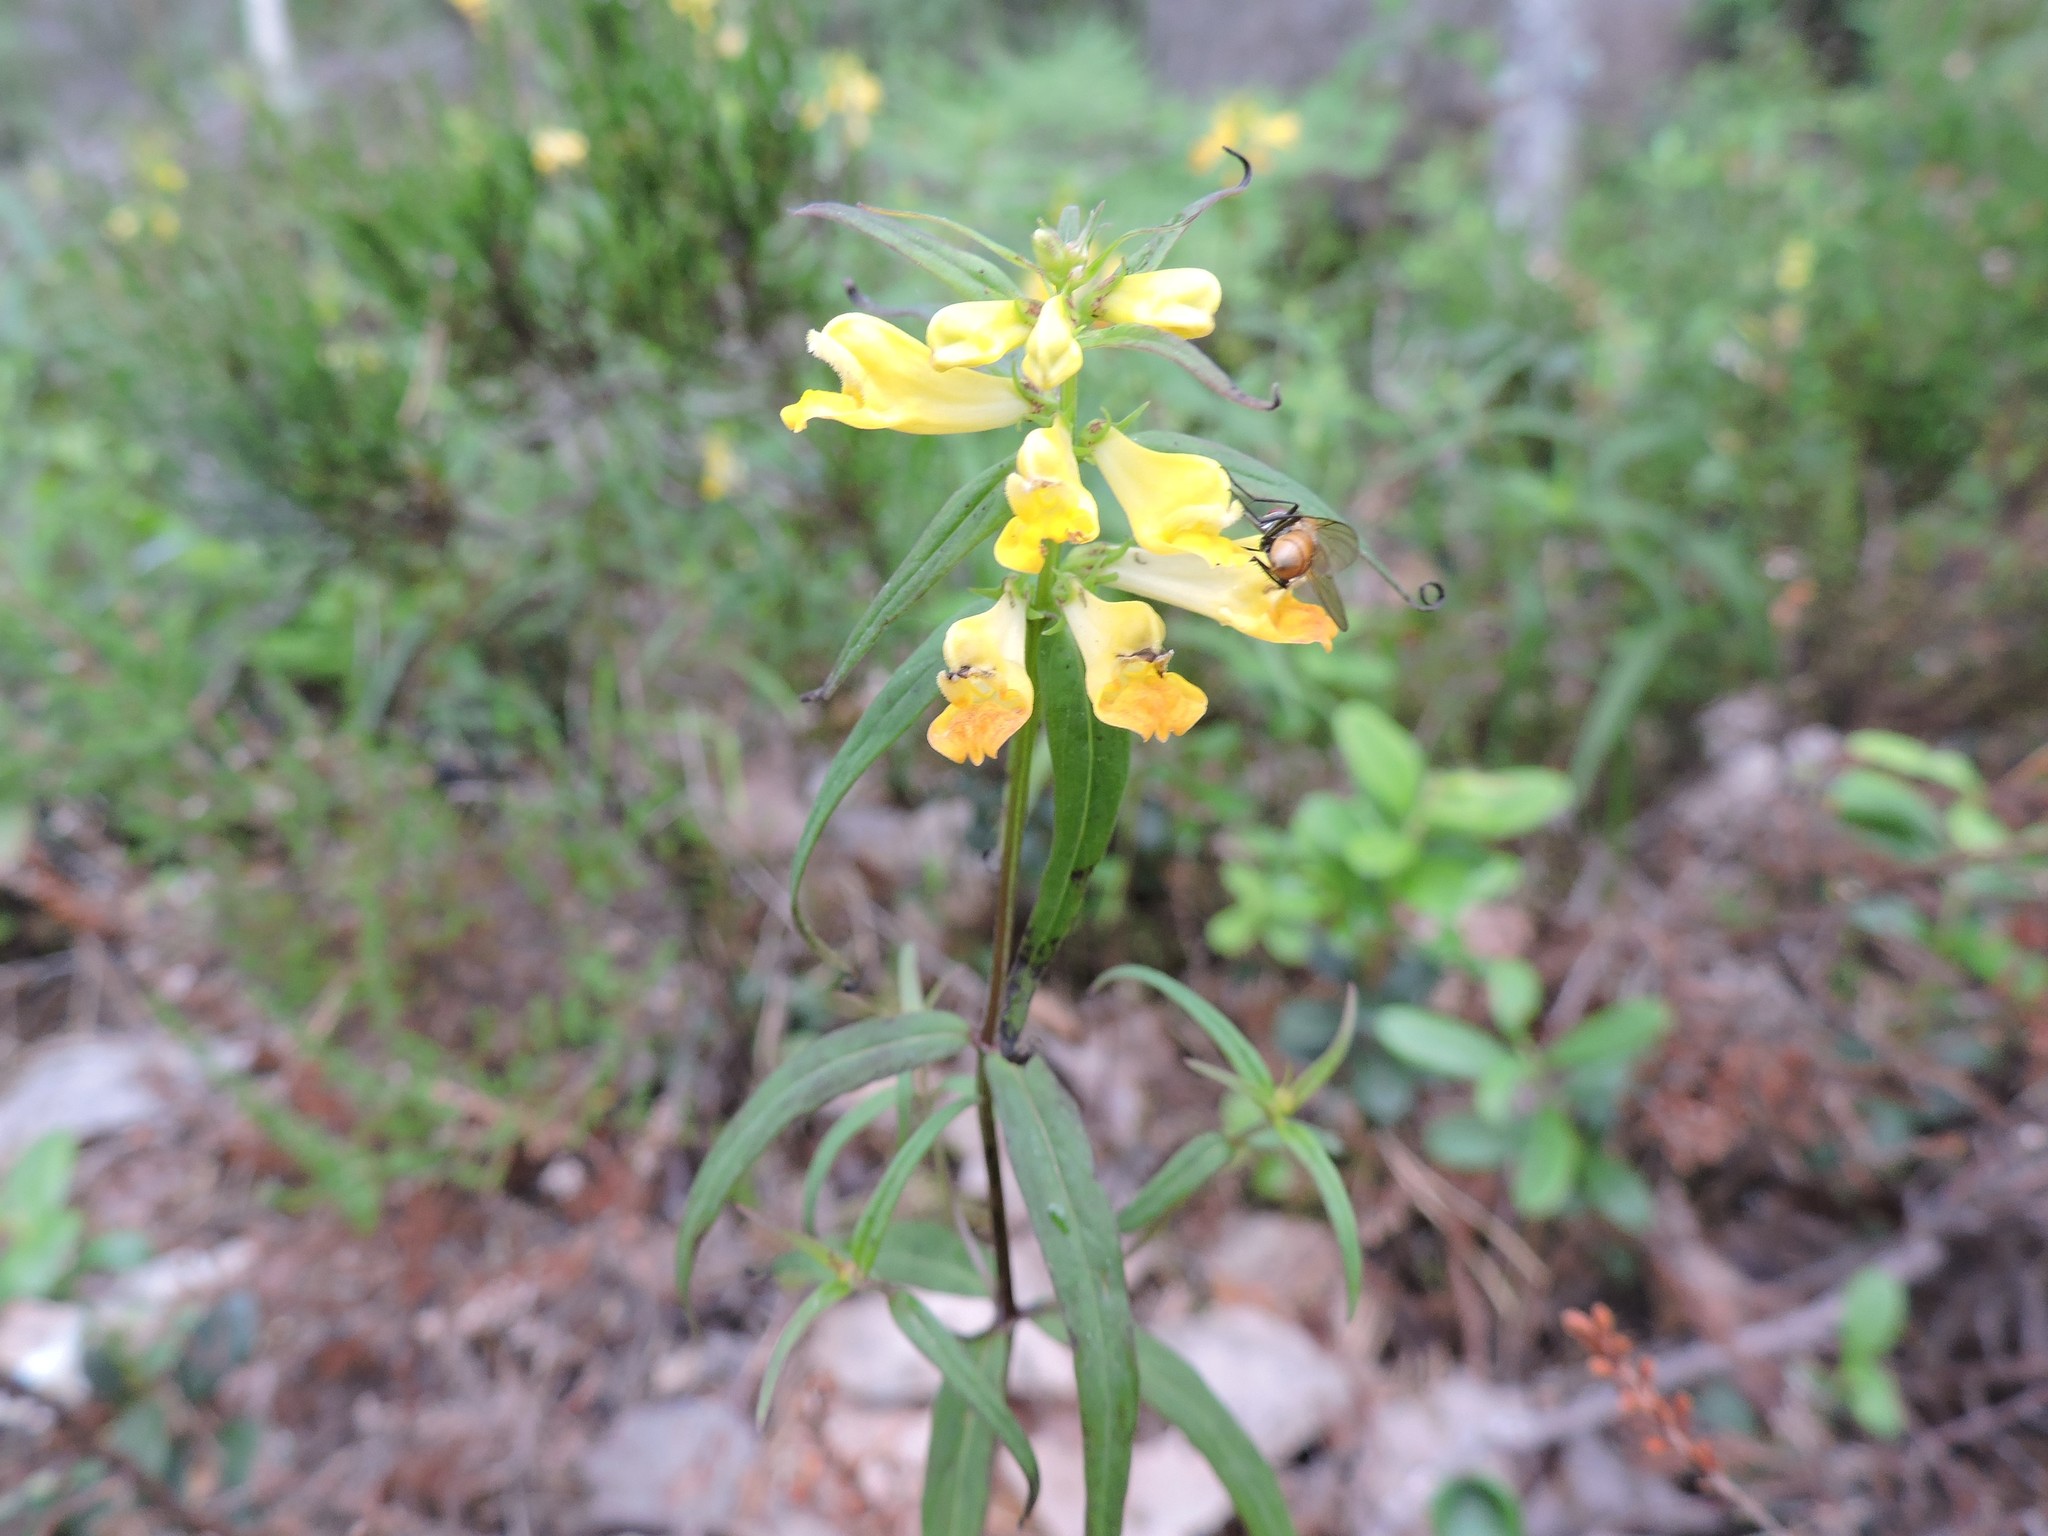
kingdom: Plantae
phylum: Tracheophyta
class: Magnoliopsida
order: Lamiales
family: Orobanchaceae
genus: Melampyrum
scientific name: Melampyrum pratense
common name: Common cow-wheat
